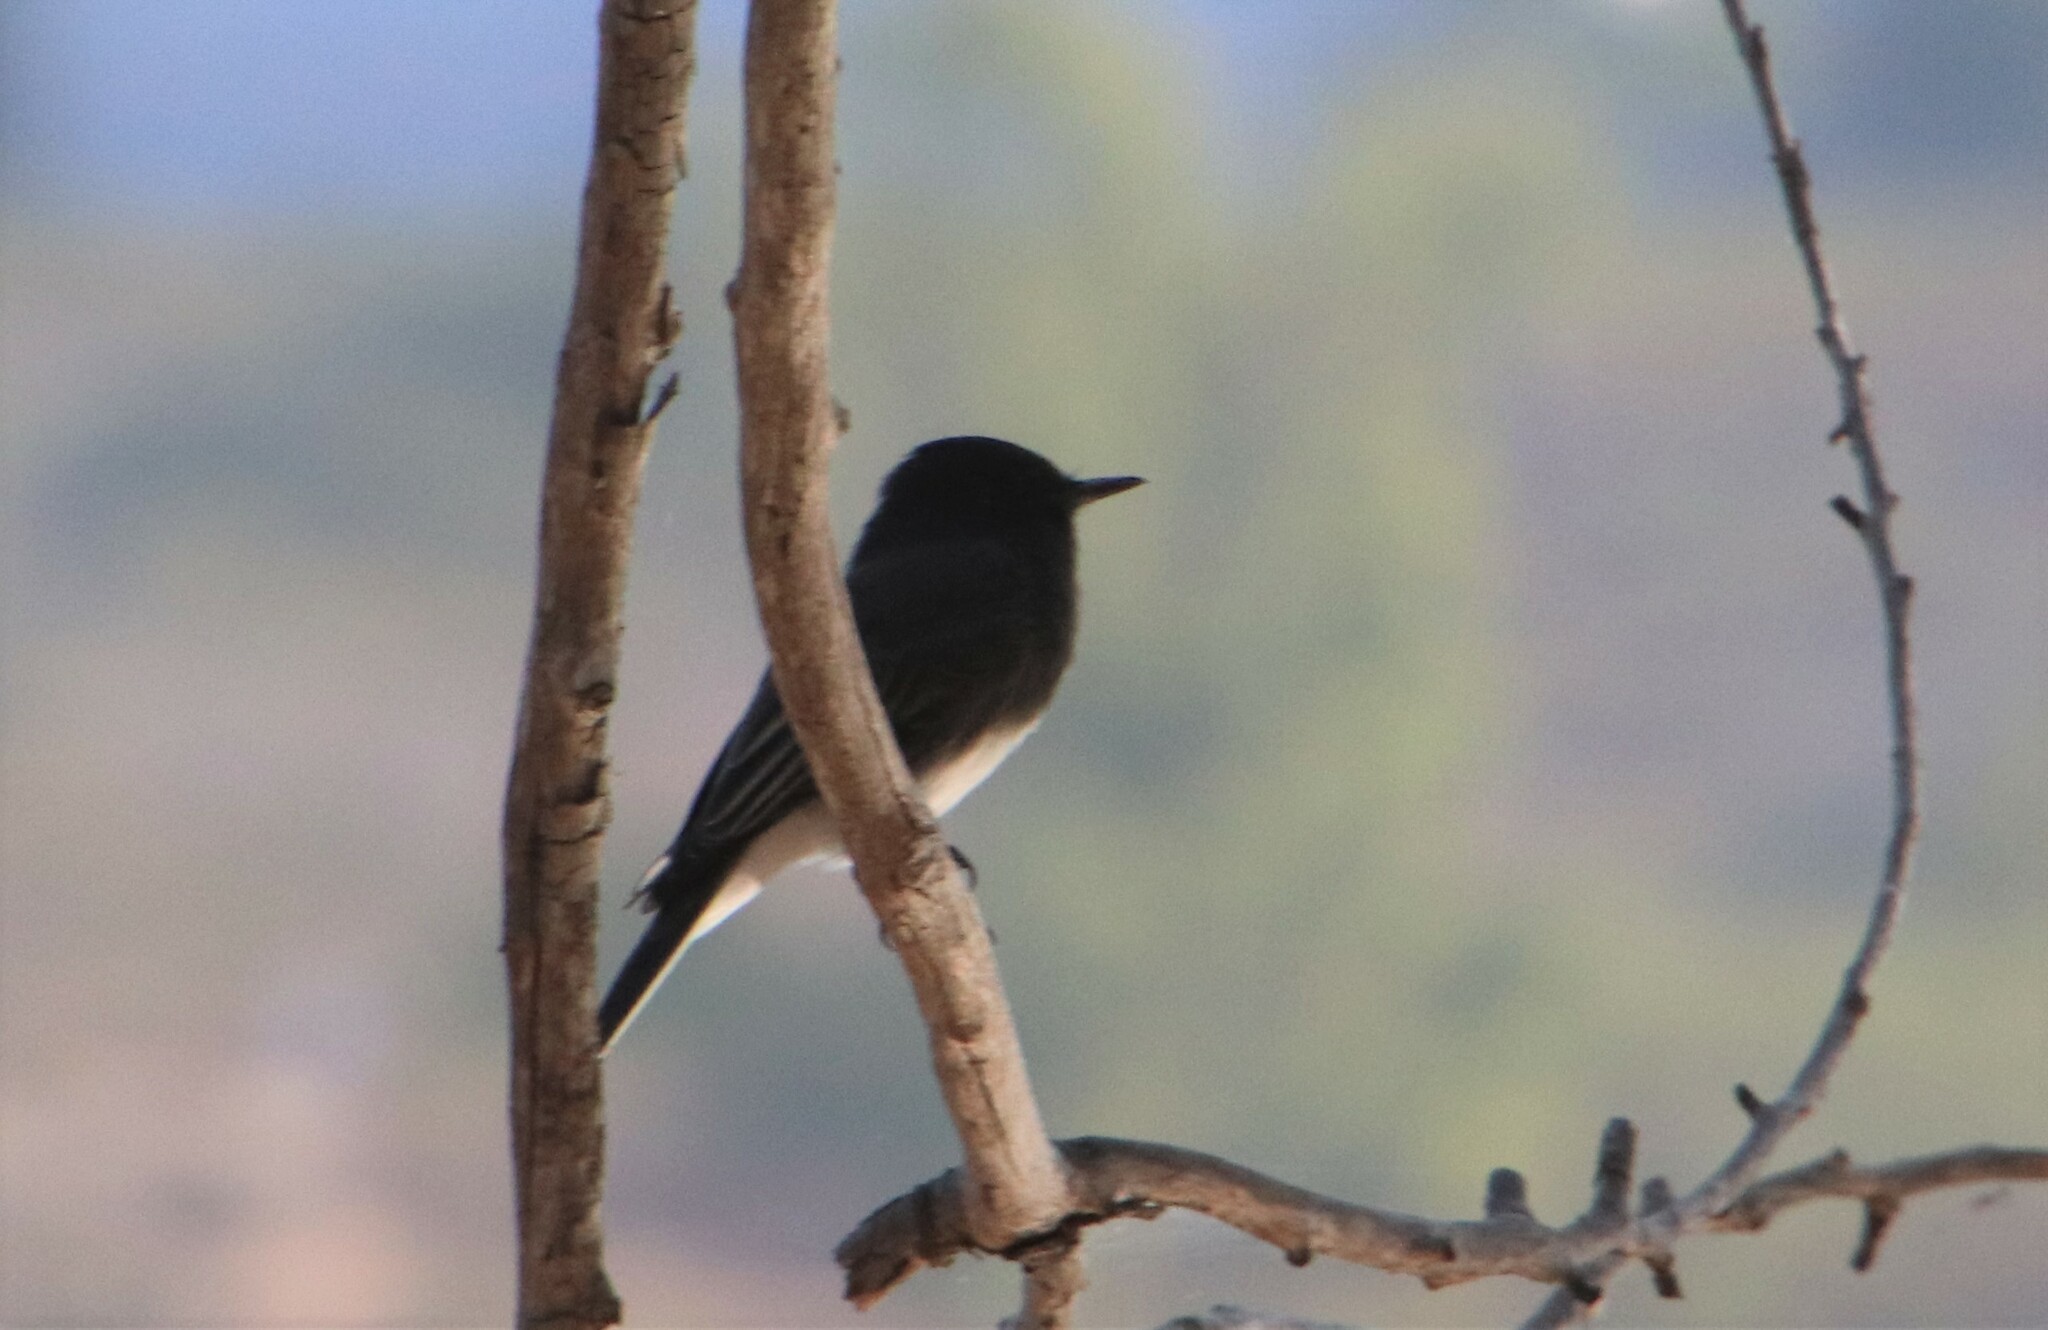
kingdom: Animalia
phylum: Chordata
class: Aves
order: Passeriformes
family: Tyrannidae
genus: Sayornis
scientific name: Sayornis nigricans
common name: Black phoebe
